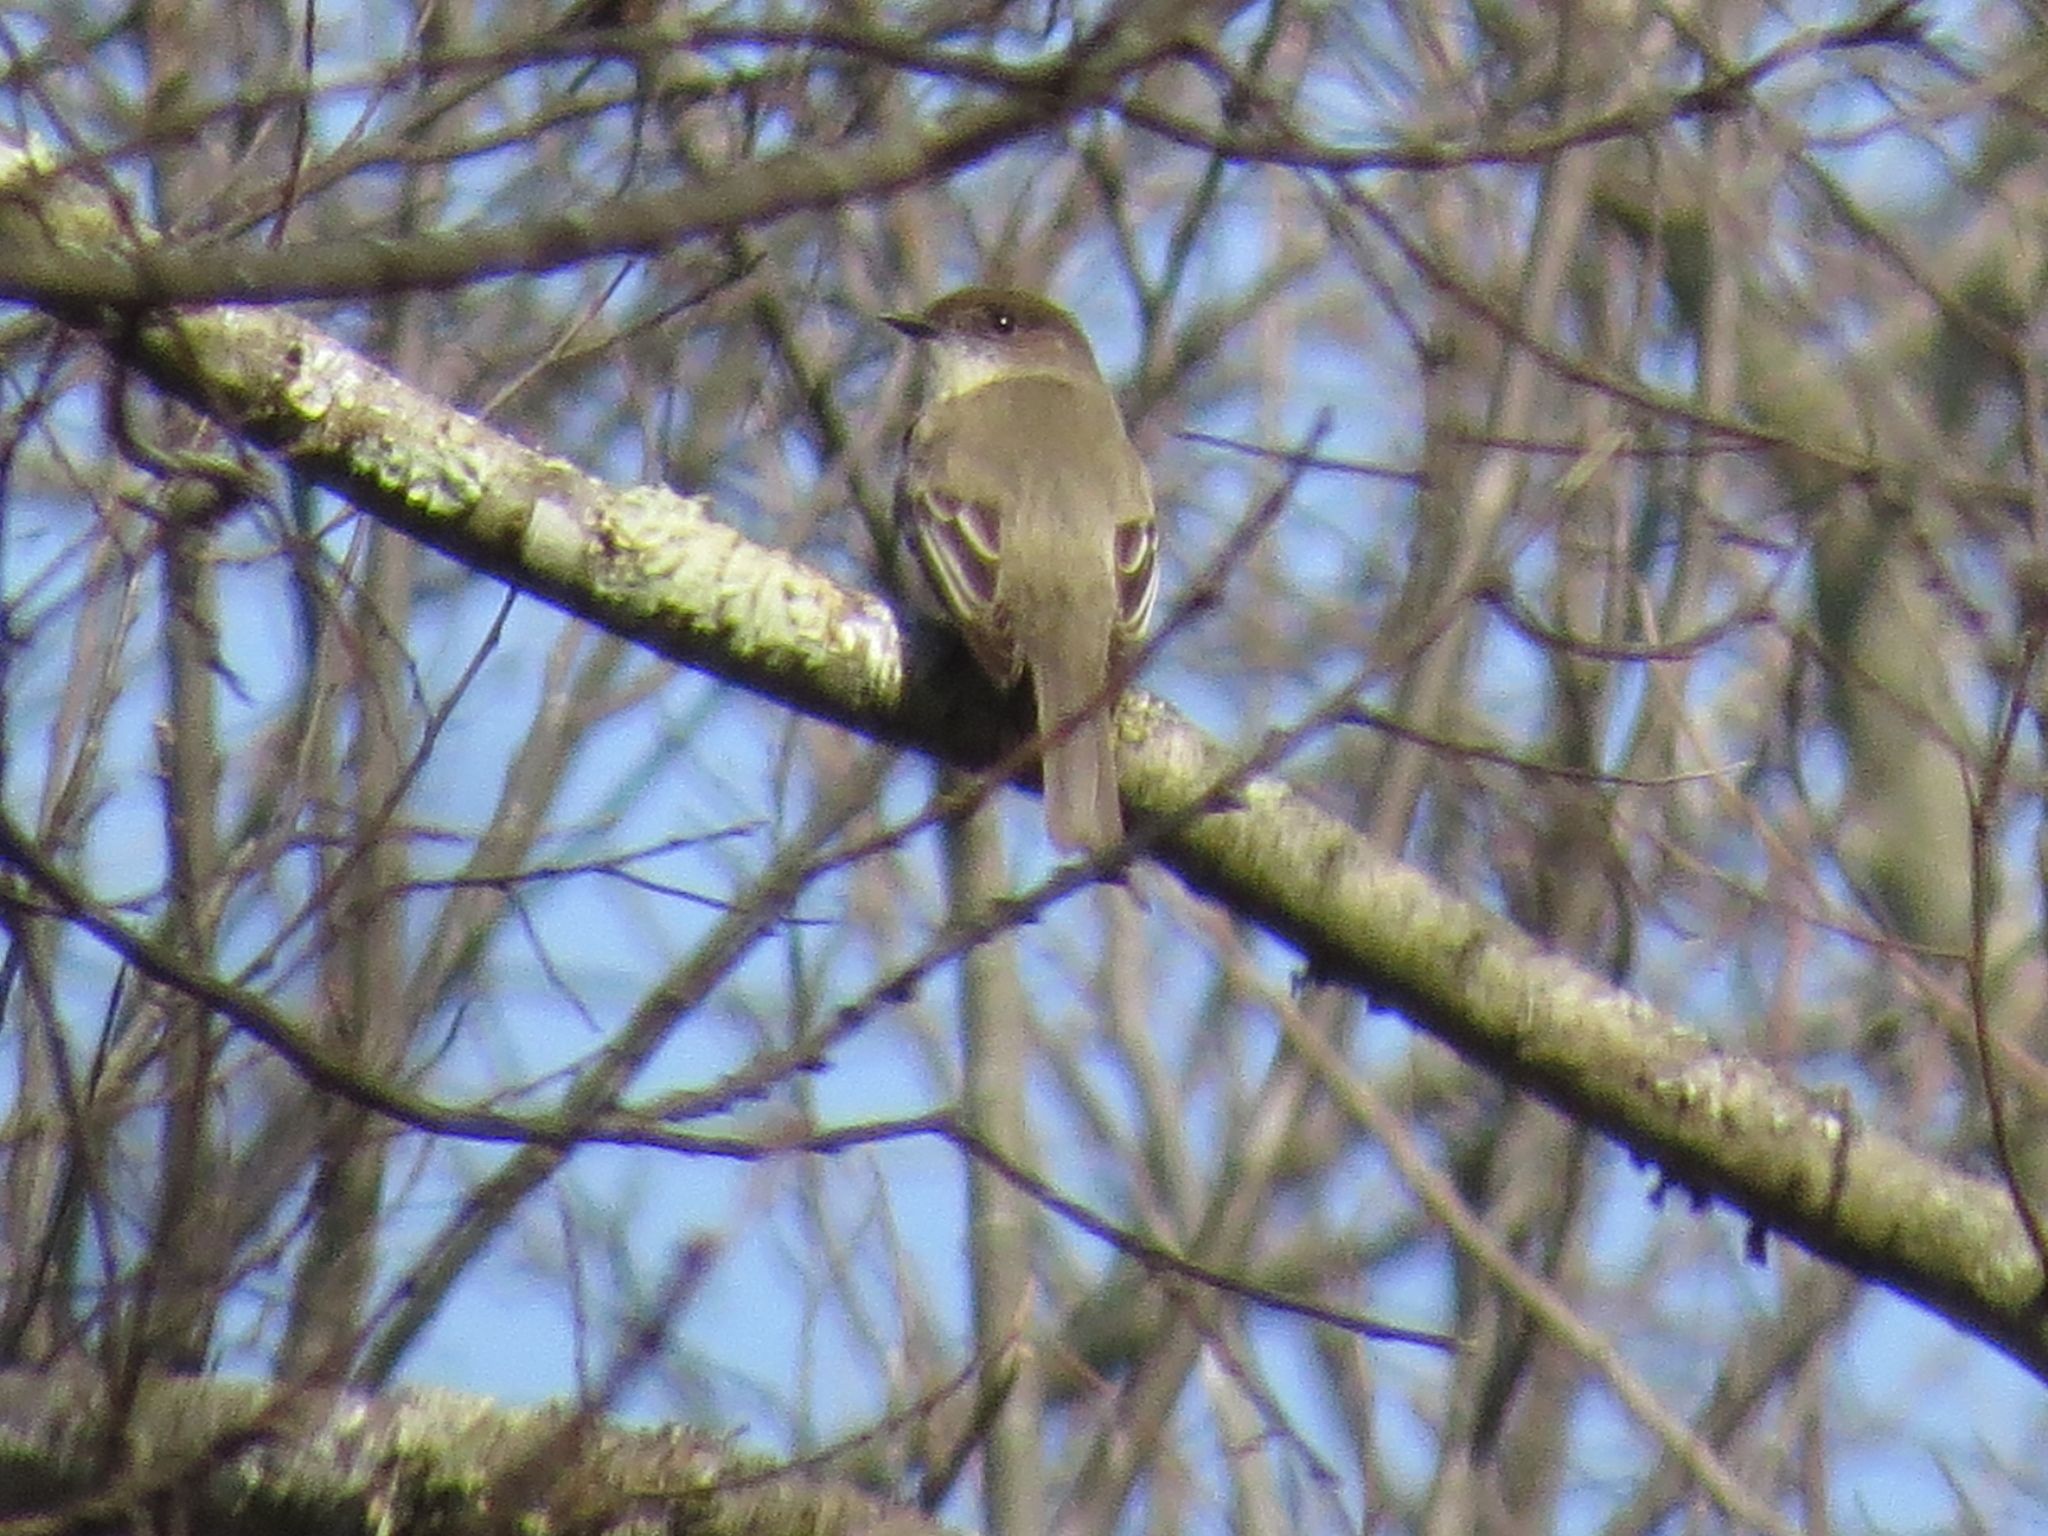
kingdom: Animalia
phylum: Chordata
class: Aves
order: Passeriformes
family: Tyrannidae
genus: Sayornis
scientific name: Sayornis phoebe
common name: Eastern phoebe
